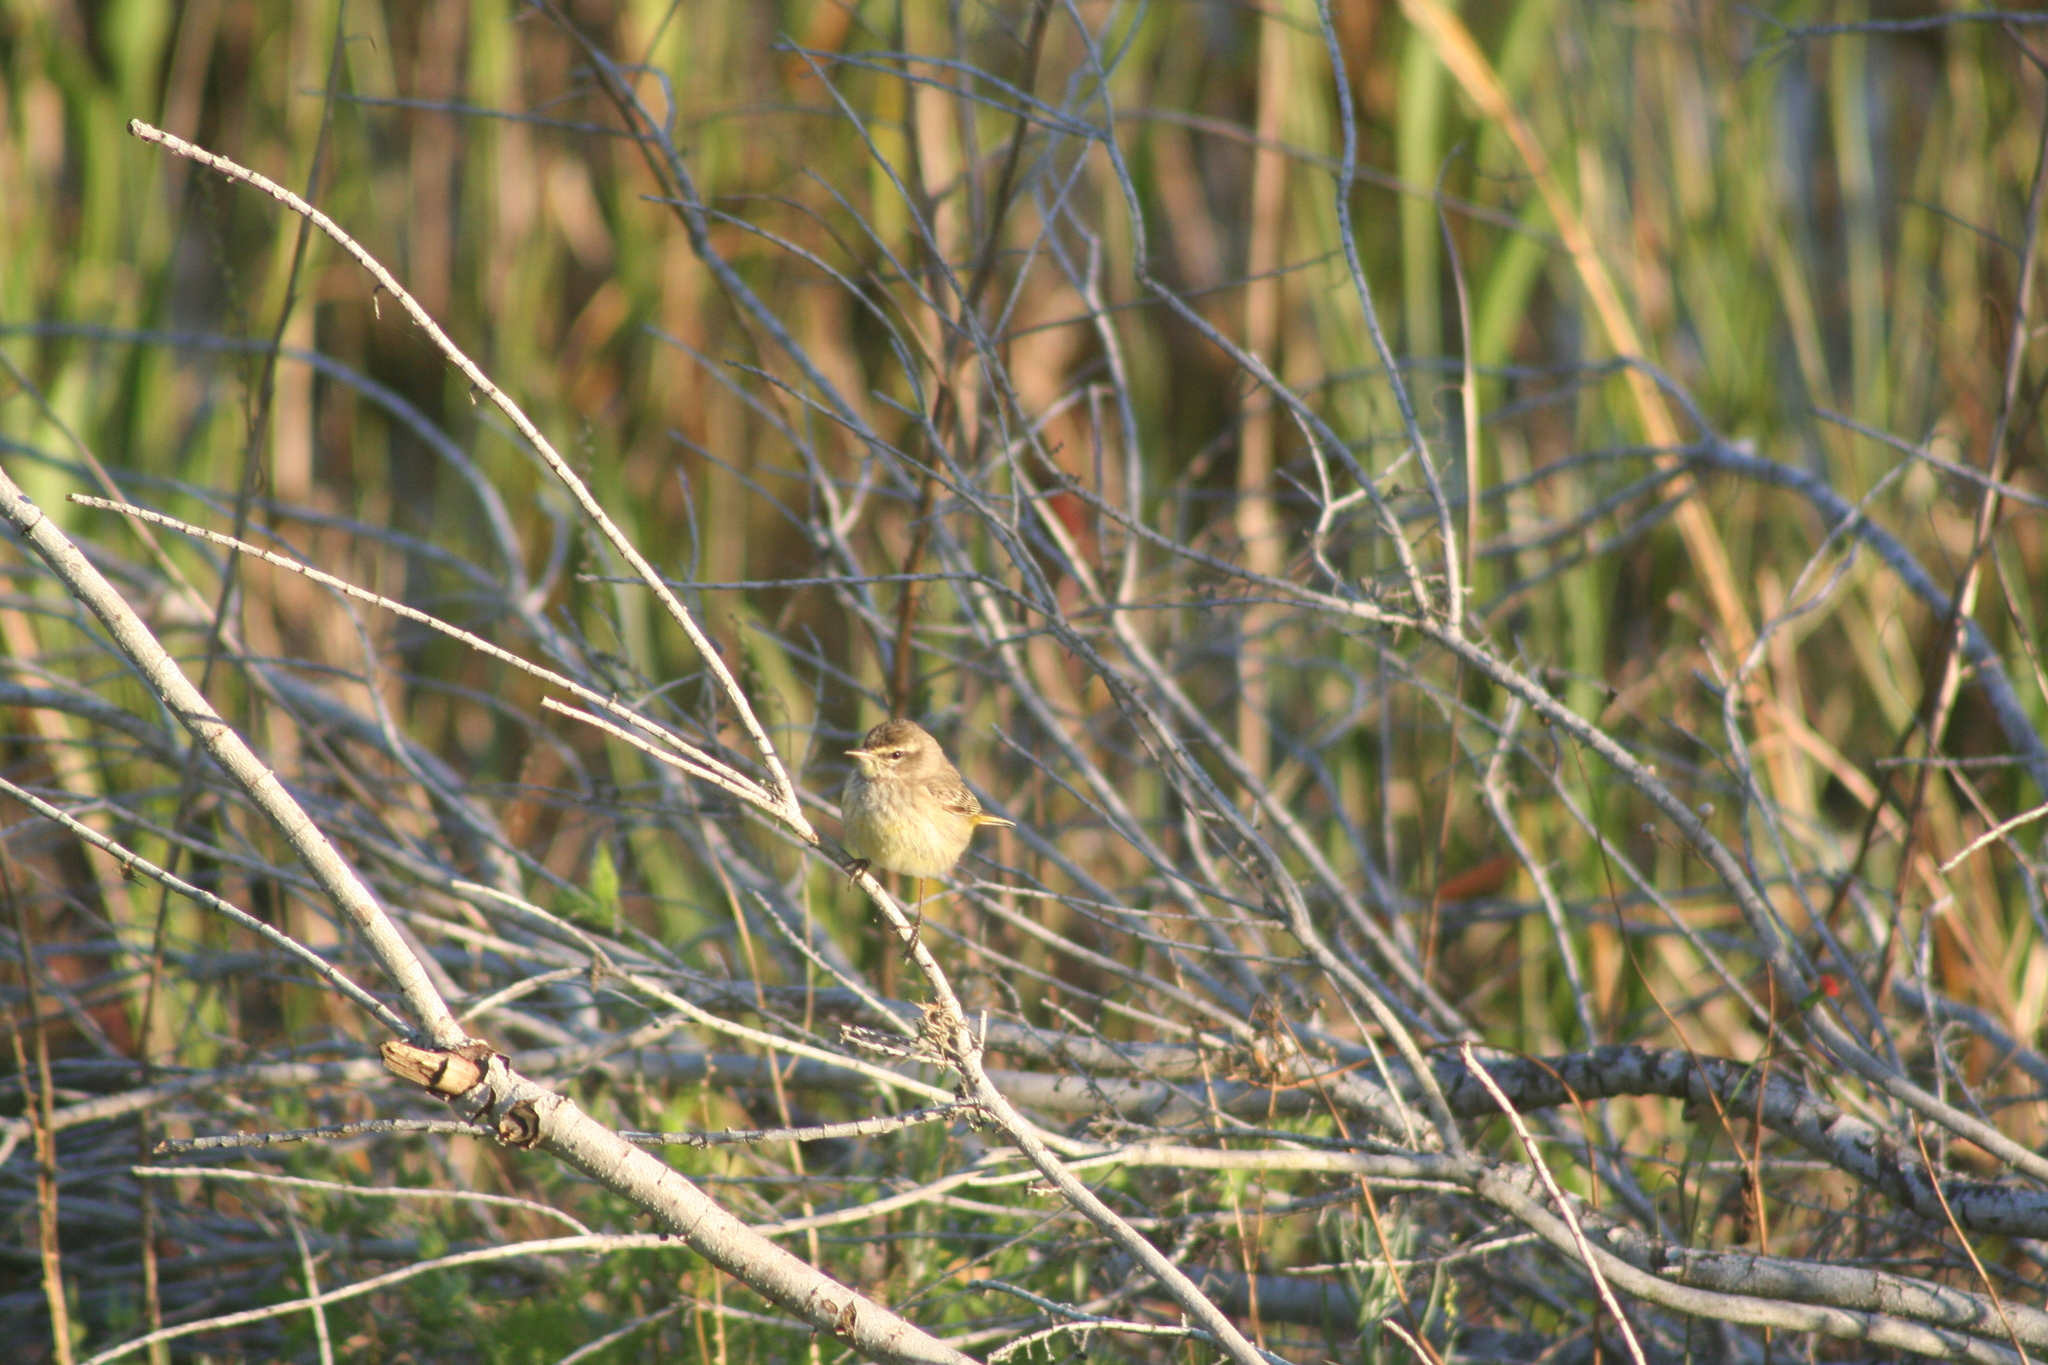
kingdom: Animalia
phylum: Chordata
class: Aves
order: Passeriformes
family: Parulidae
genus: Setophaga
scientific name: Setophaga palmarum
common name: Palm warbler
